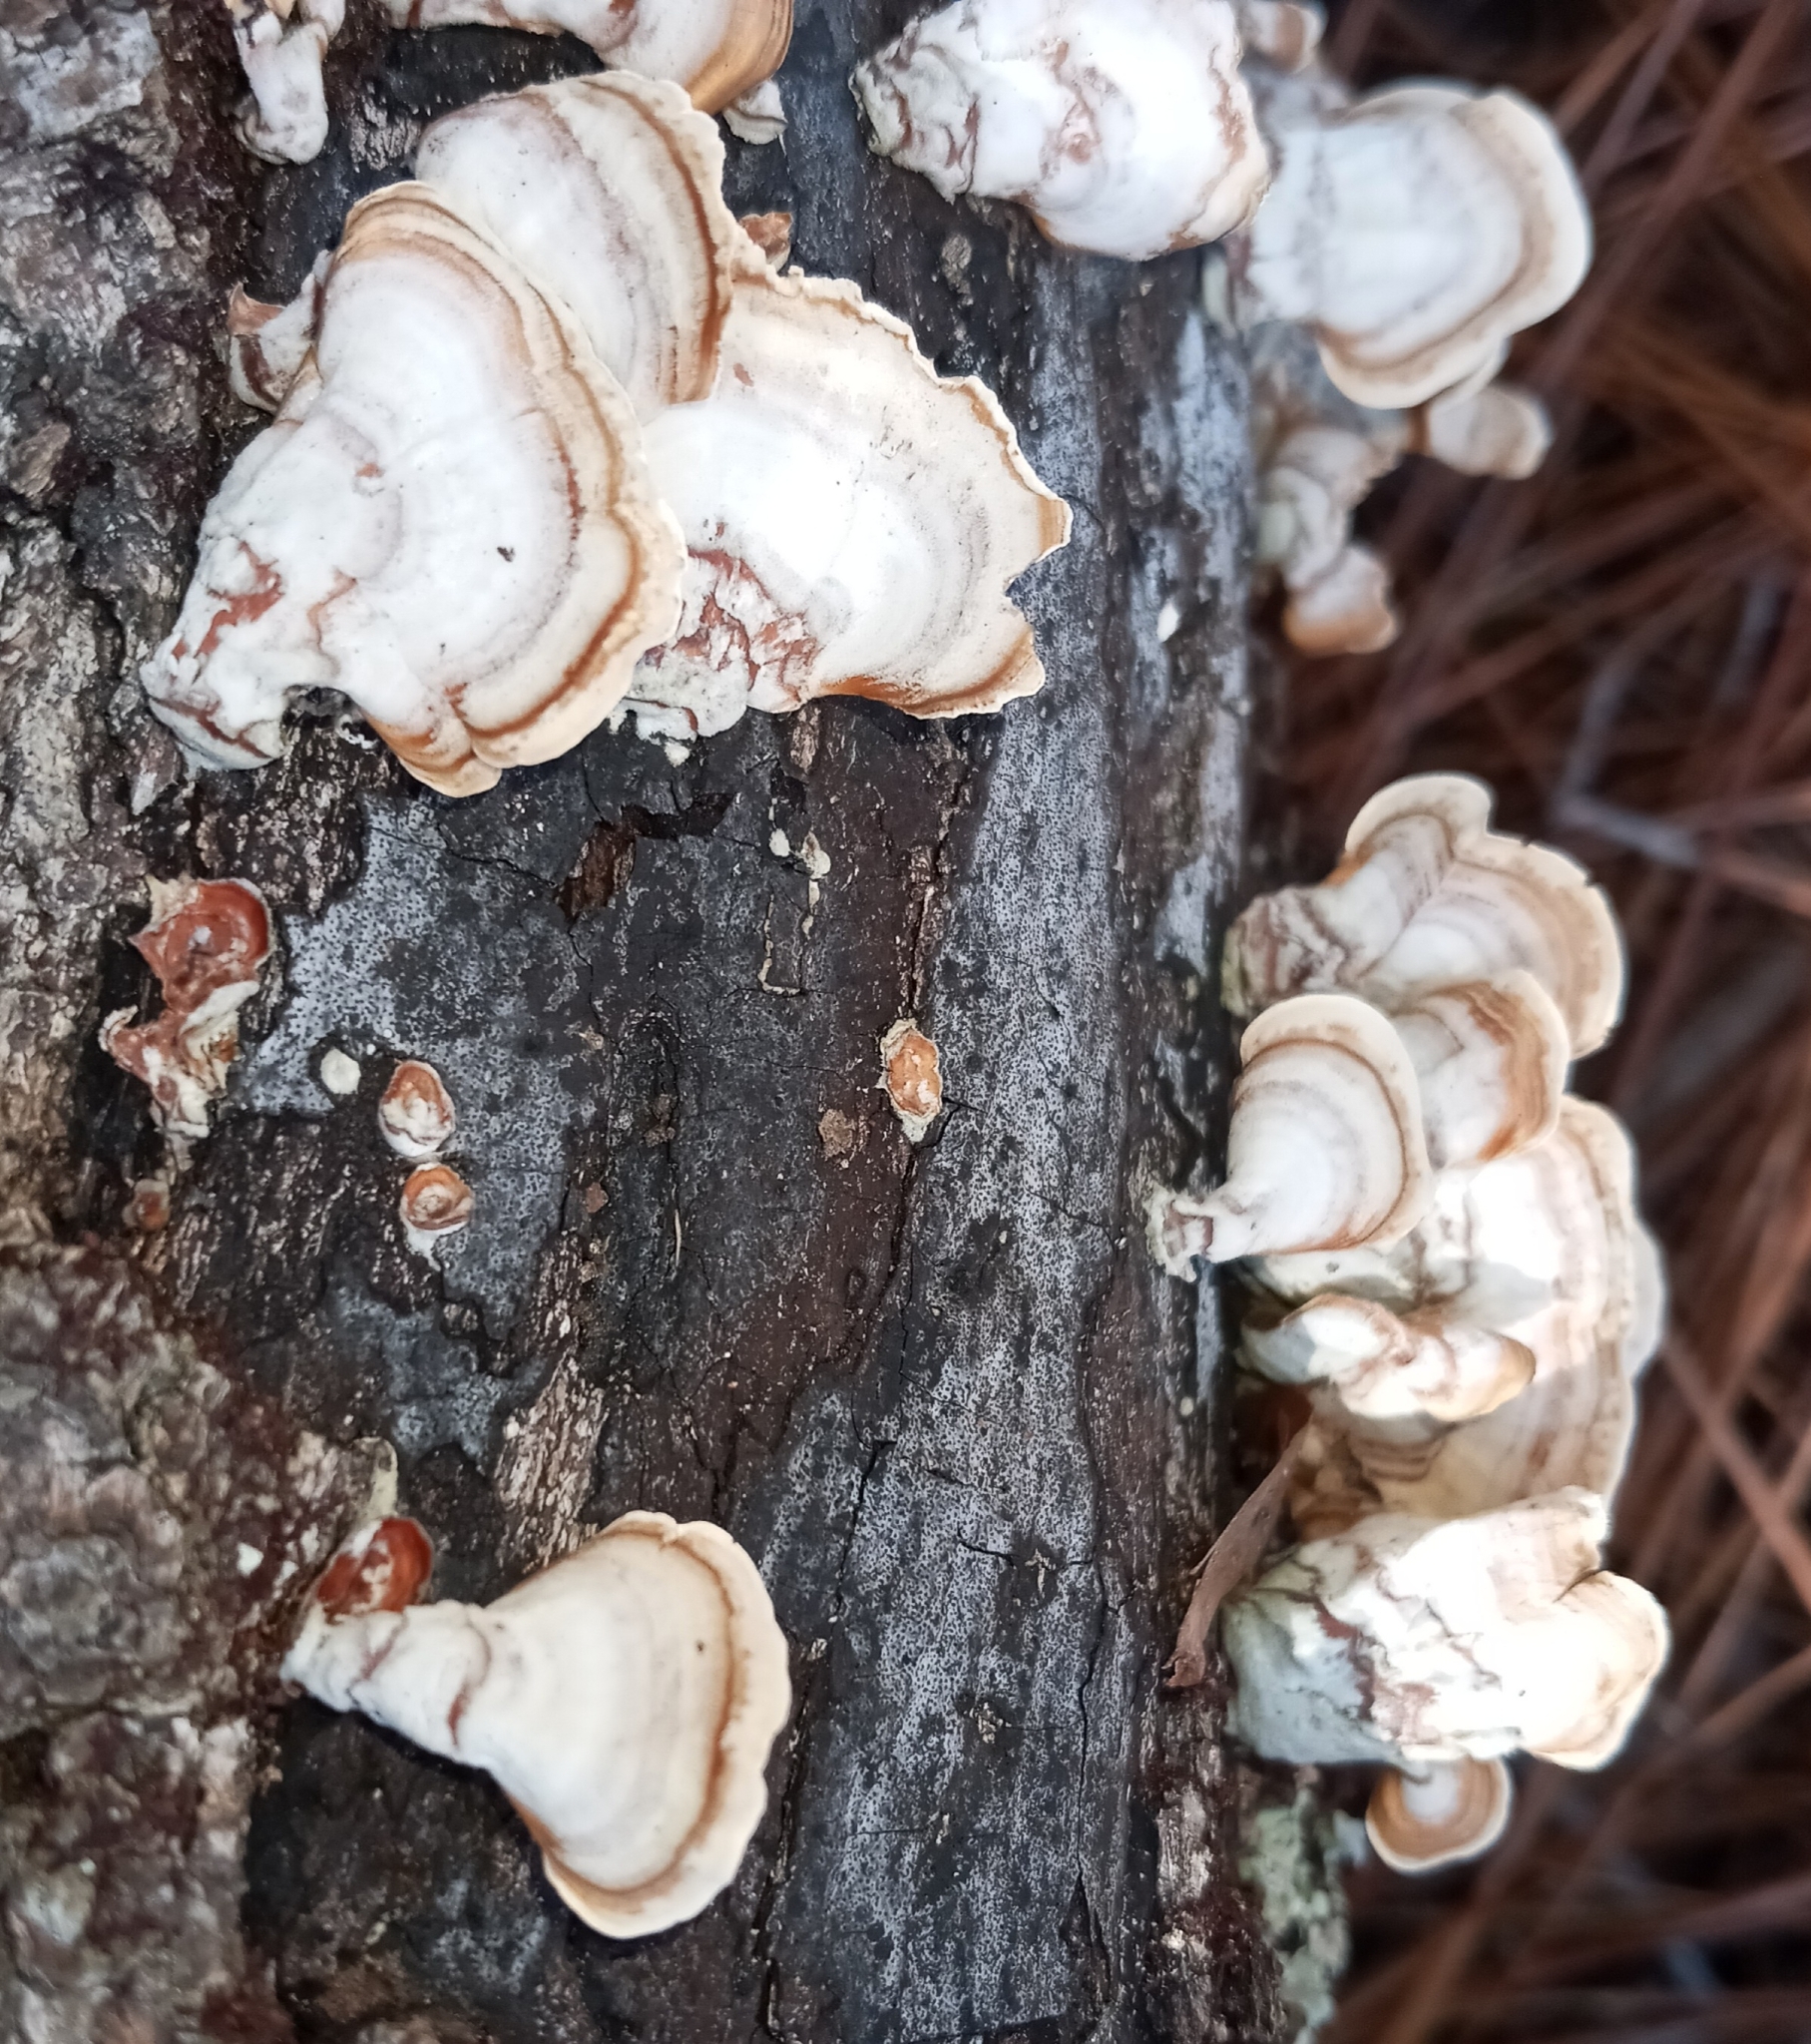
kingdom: Fungi
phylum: Basidiomycota
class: Agaricomycetes
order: Russulales
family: Stereaceae
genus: Stereum
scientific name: Stereum lobatum
